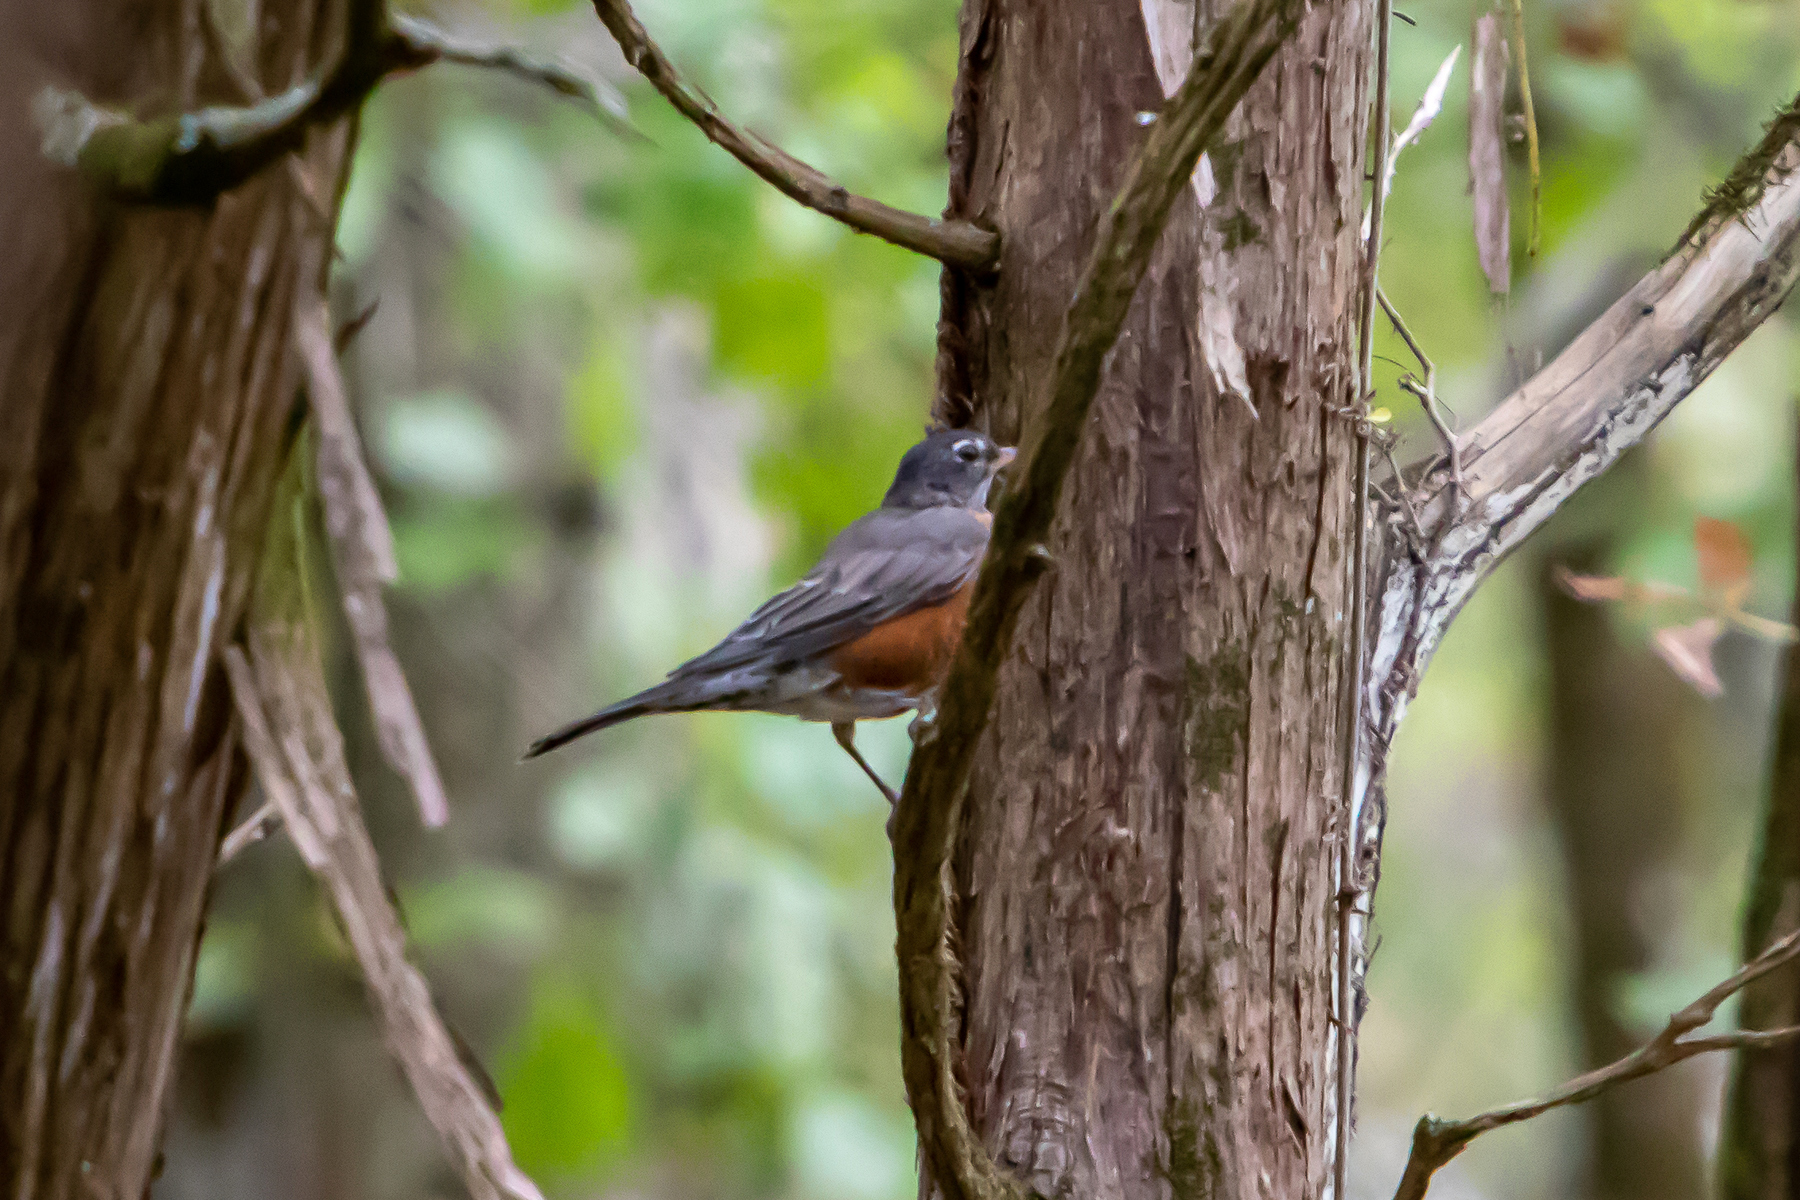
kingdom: Animalia
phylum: Chordata
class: Aves
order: Passeriformes
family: Turdidae
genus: Turdus
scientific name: Turdus migratorius
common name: American robin
